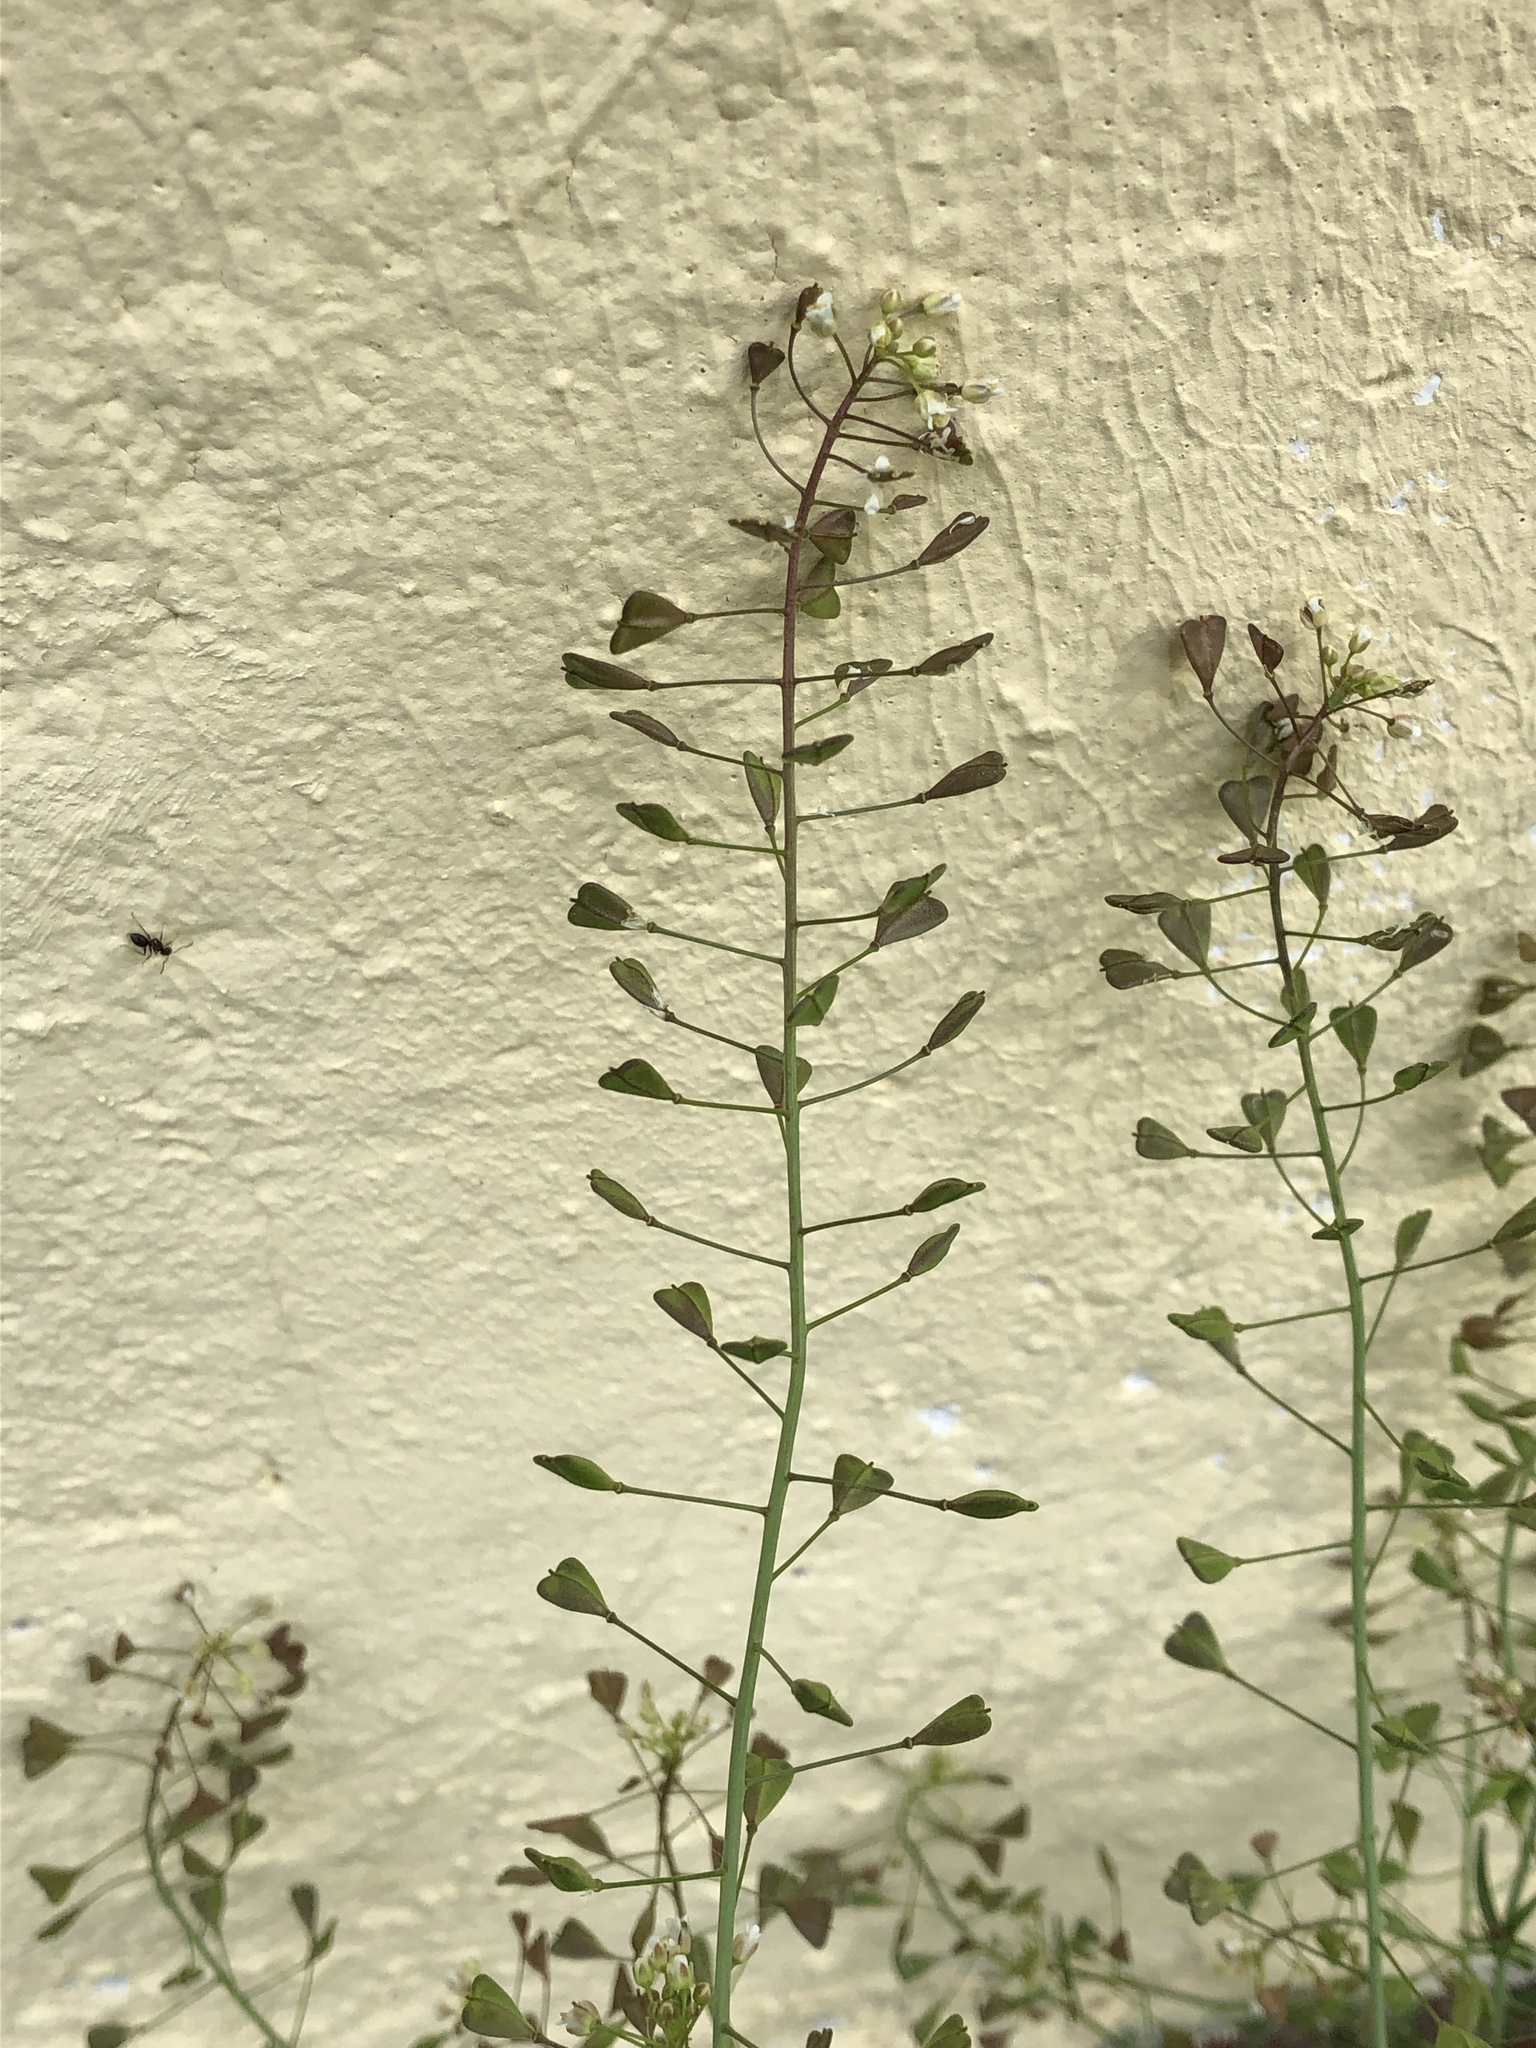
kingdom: Plantae
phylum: Tracheophyta
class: Magnoliopsida
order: Brassicales
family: Brassicaceae
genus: Capsella
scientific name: Capsella bursa-pastoris
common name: Shepherd's purse
